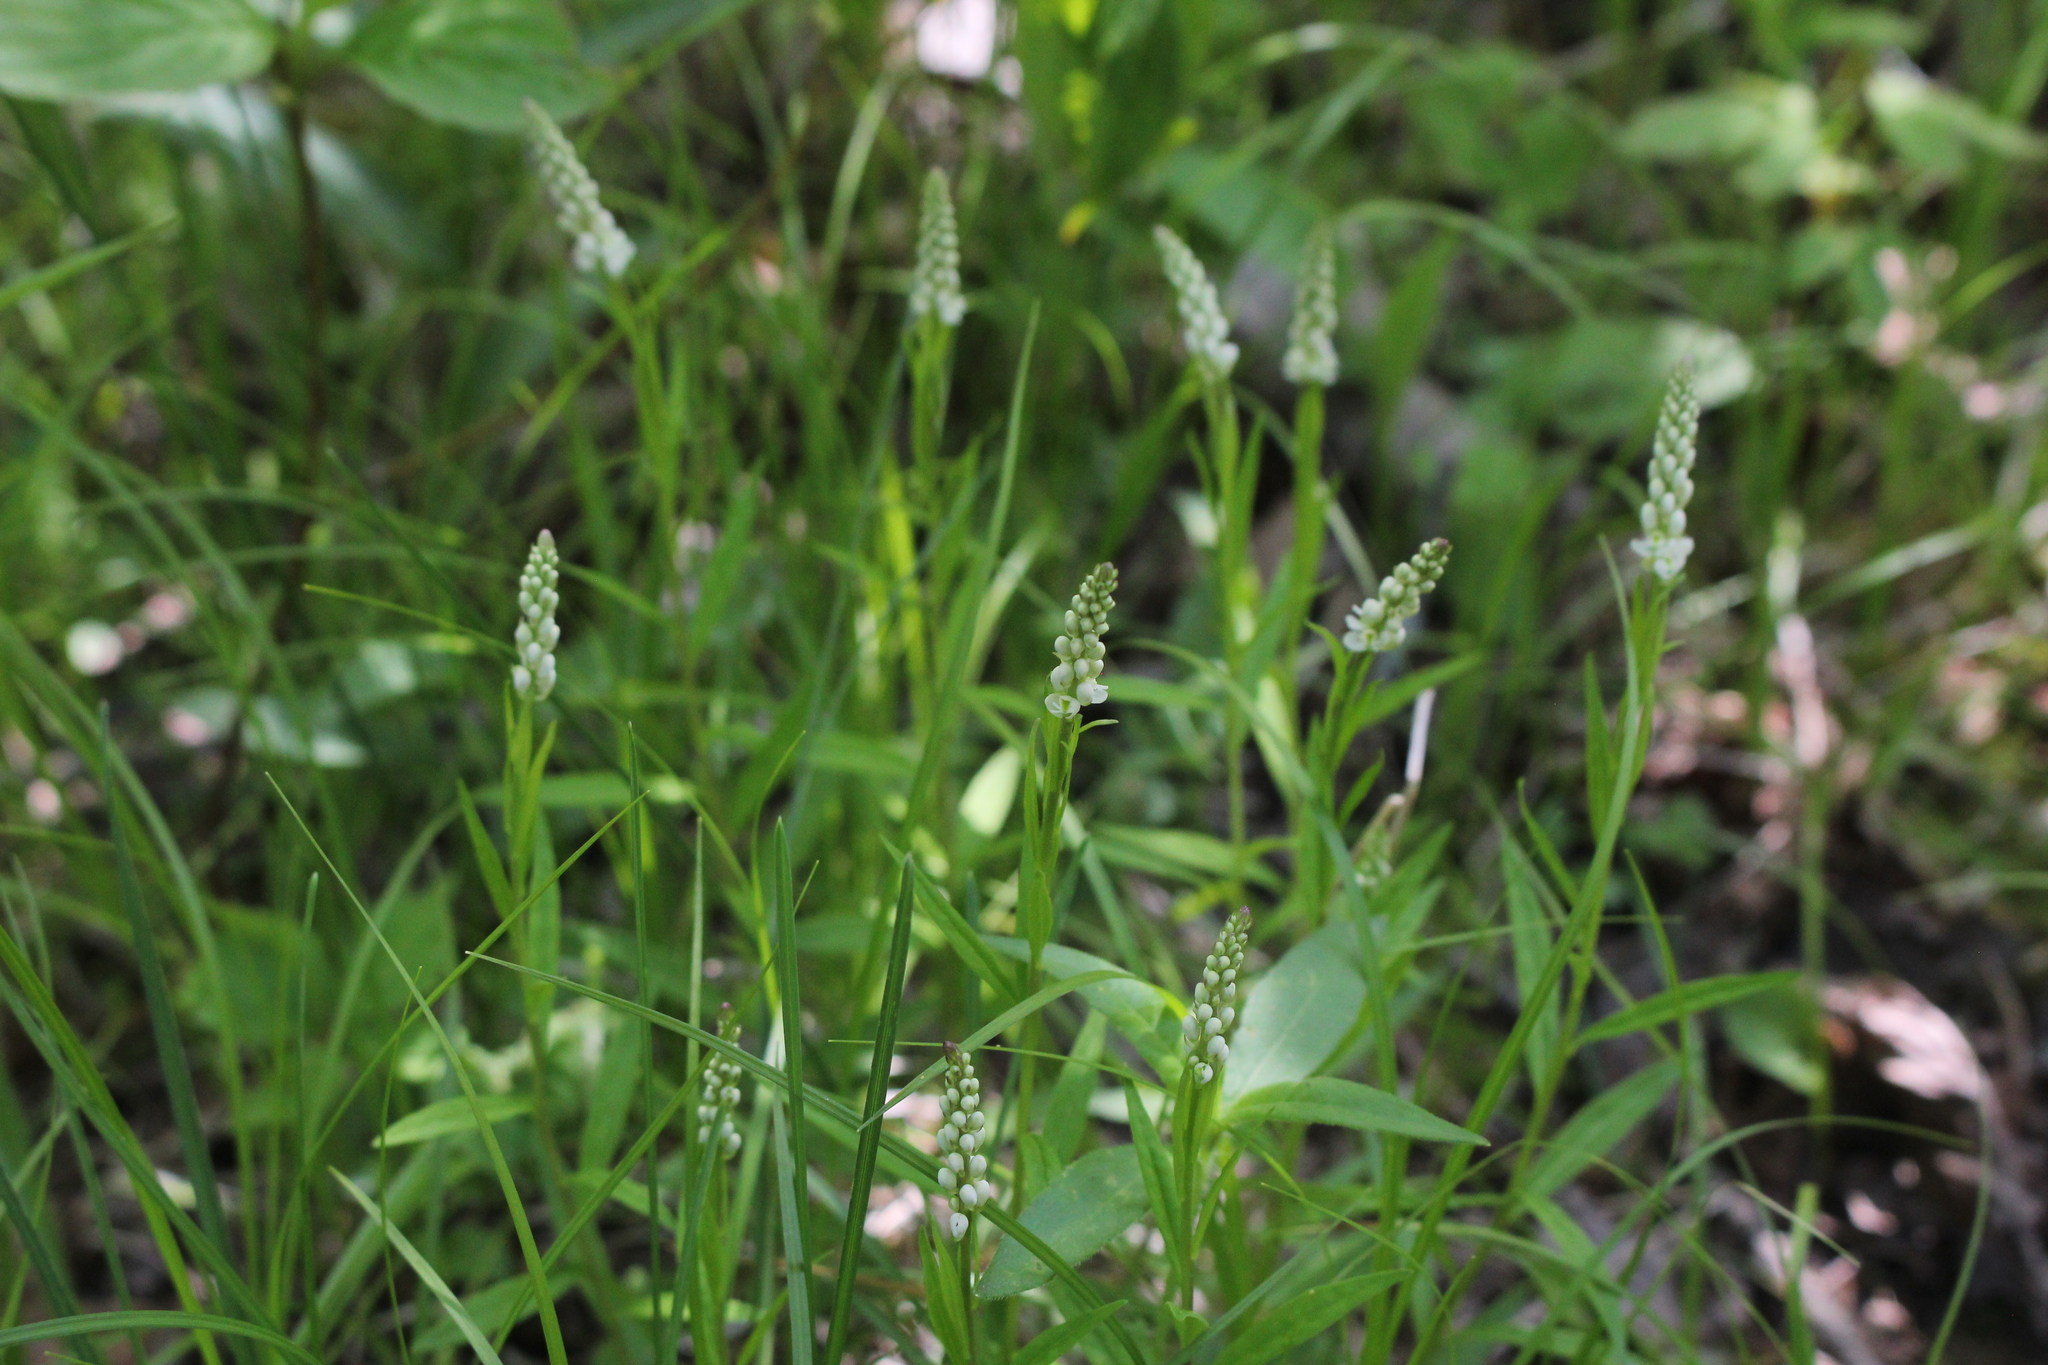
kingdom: Plantae
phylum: Tracheophyta
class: Magnoliopsida
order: Fabales
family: Polygalaceae
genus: Polygala
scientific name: Polygala senega
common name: Seneca snakeroot
